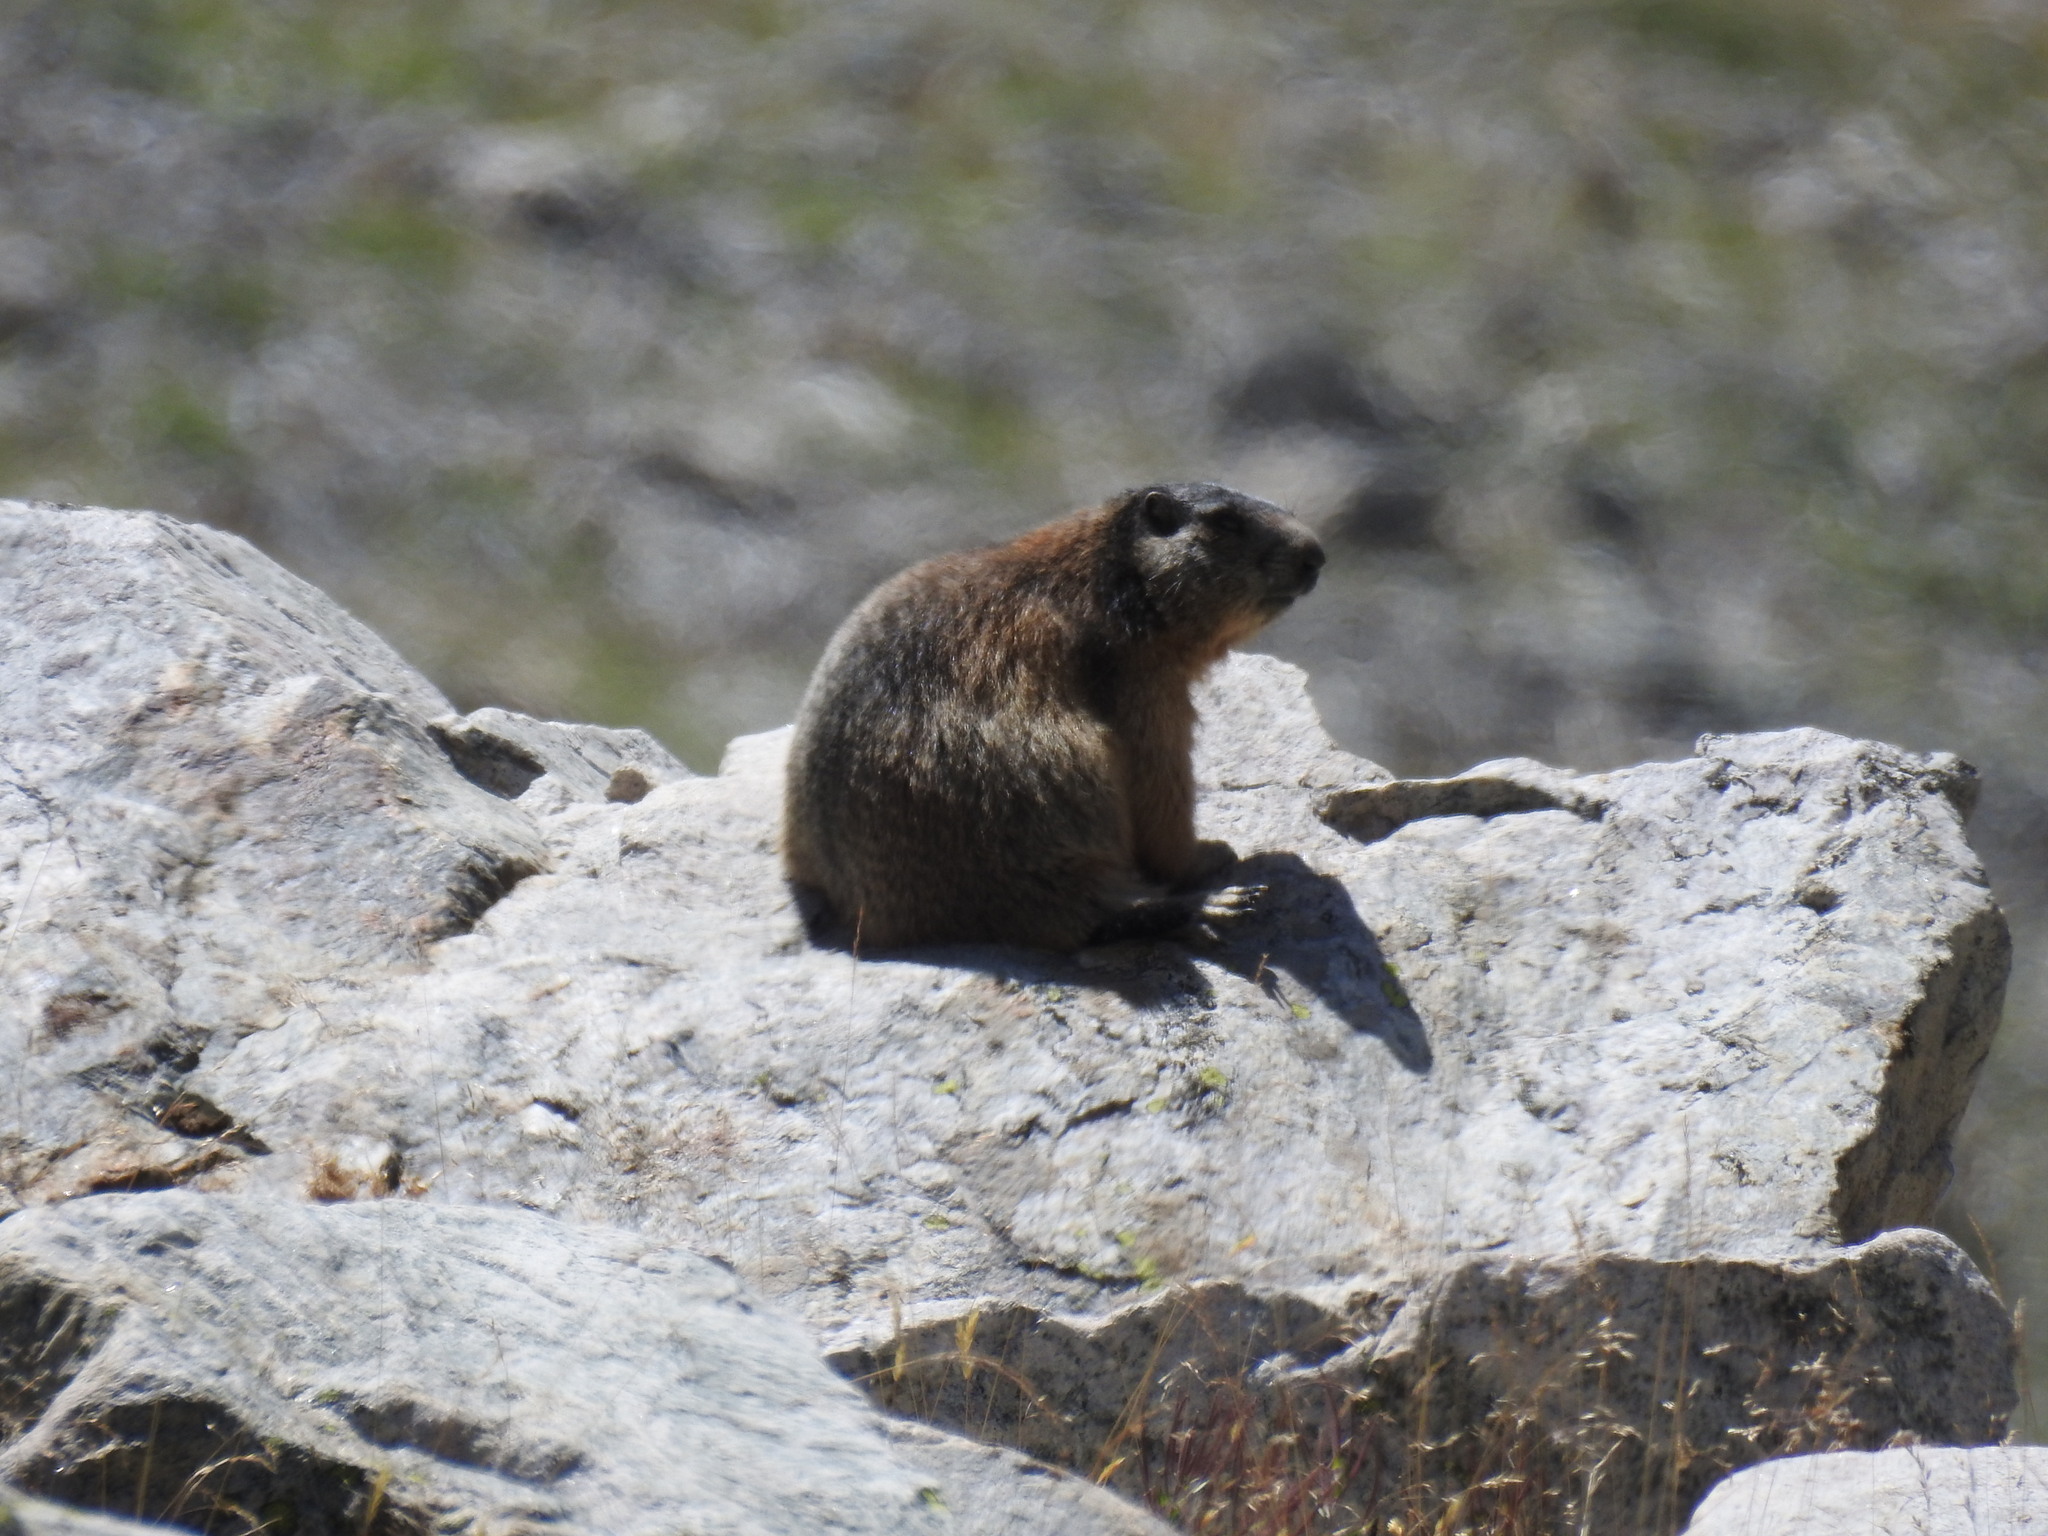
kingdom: Animalia
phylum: Chordata
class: Mammalia
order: Rodentia
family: Sciuridae
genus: Marmota
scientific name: Marmota marmota
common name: Alpine marmot
